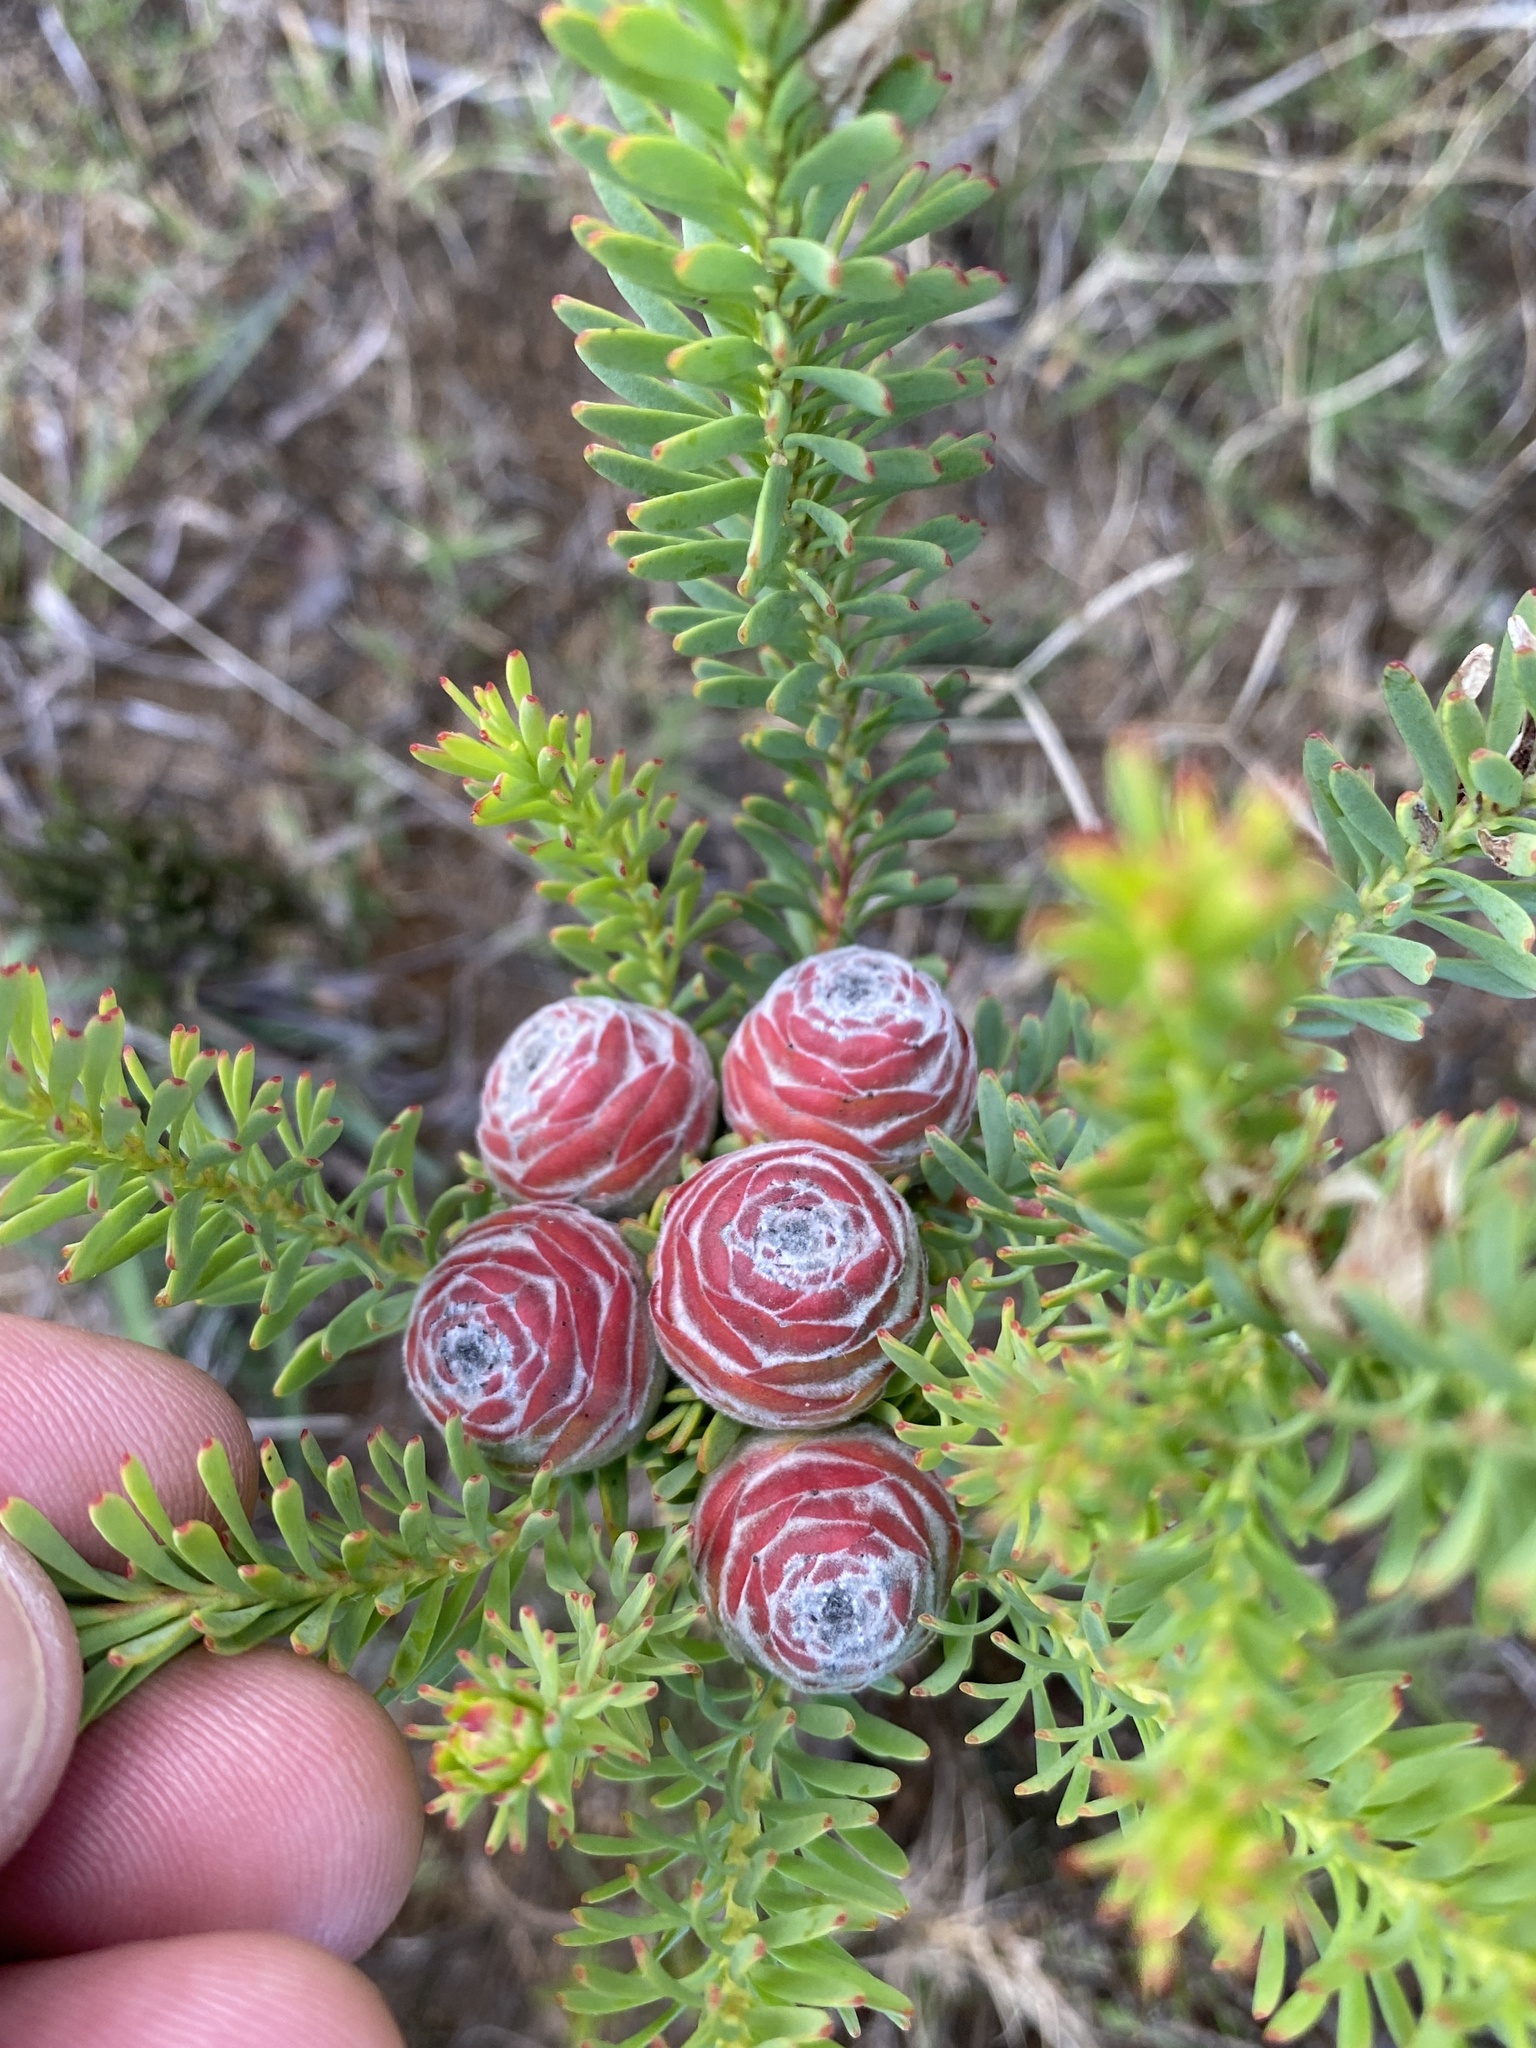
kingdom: Plantae
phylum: Tracheophyta
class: Magnoliopsida
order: Proteales
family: Proteaceae
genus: Leucadendron
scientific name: Leucadendron linifolium
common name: Line-leaf conebush
